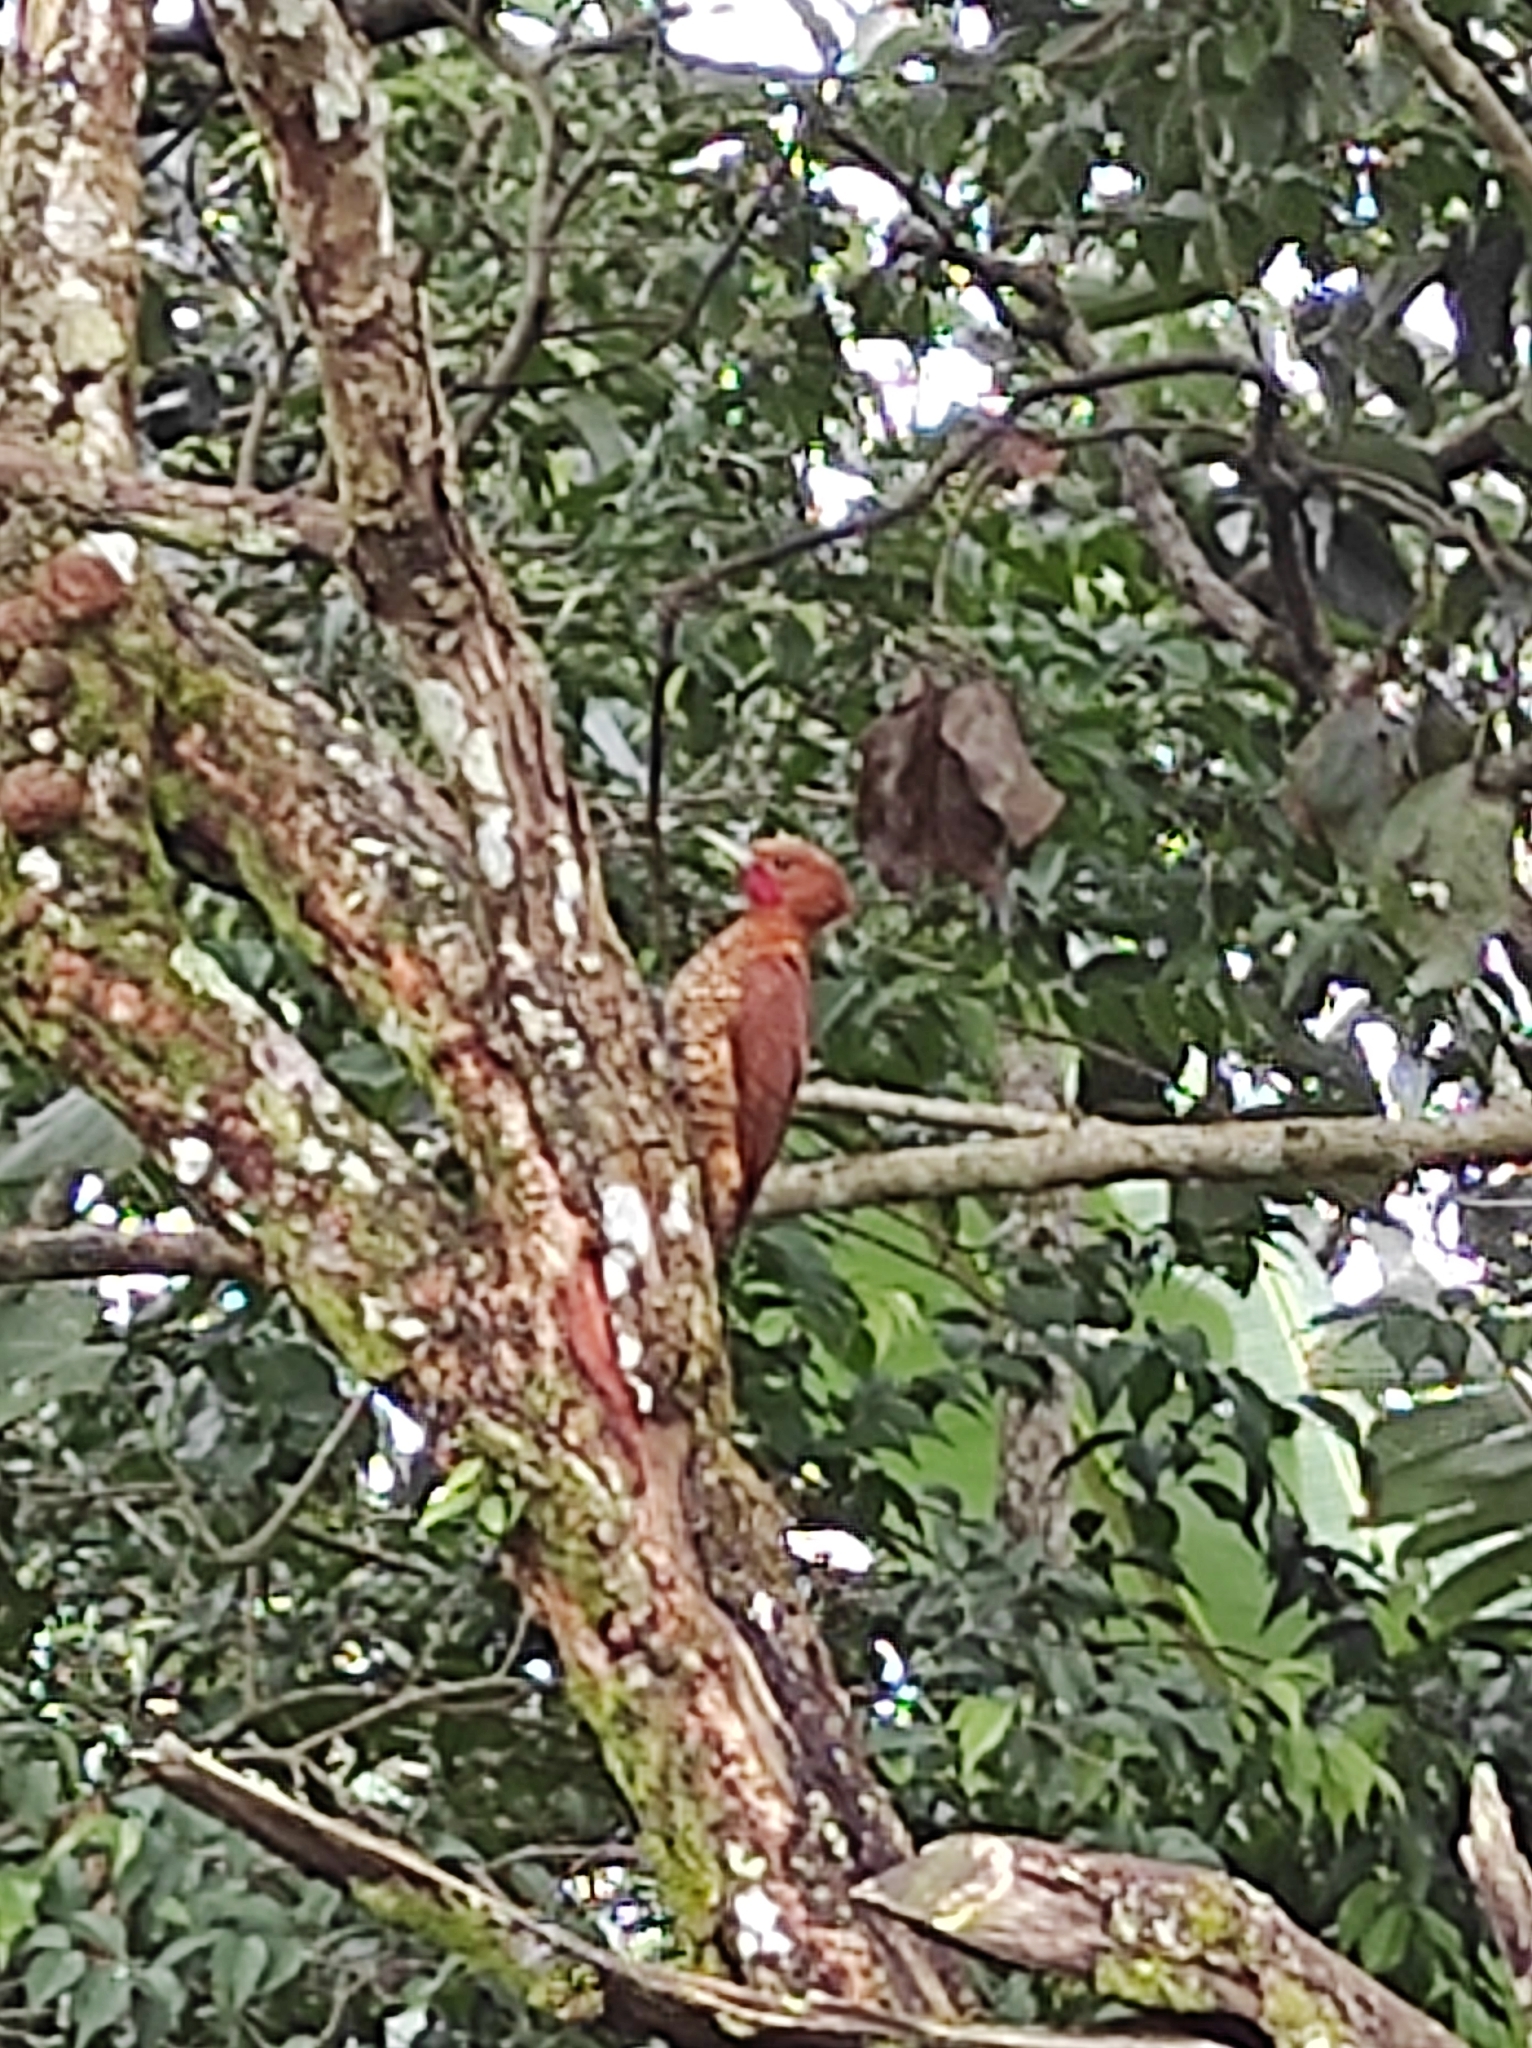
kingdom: Animalia
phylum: Chordata
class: Aves
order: Piciformes
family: Picidae
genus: Celeus
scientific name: Celeus loricatus
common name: Cinnamon woodpecker
